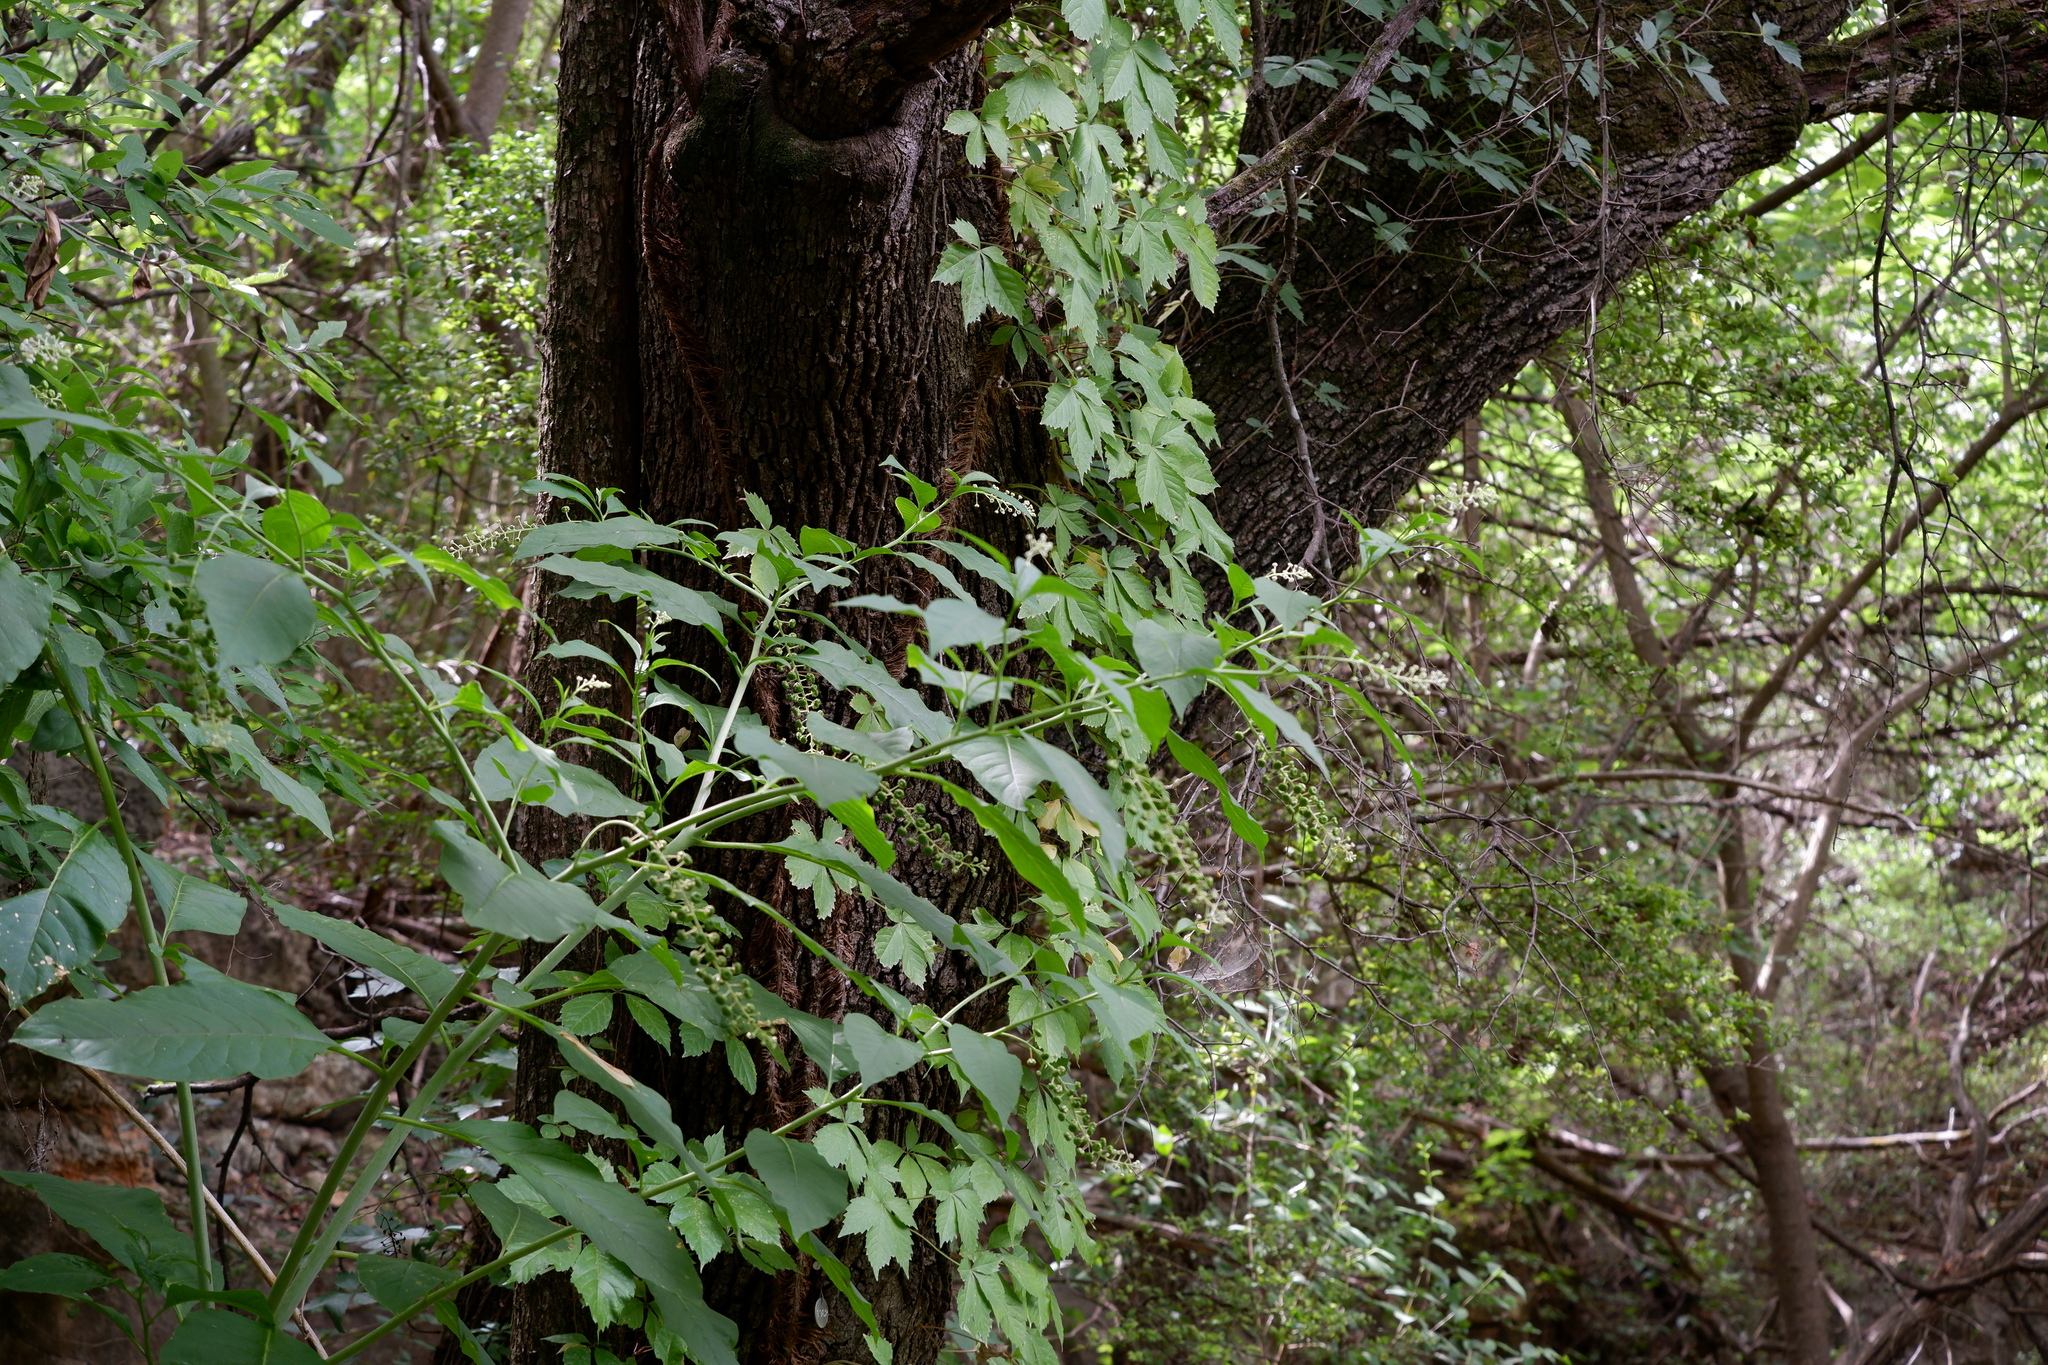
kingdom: Plantae
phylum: Tracheophyta
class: Magnoliopsida
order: Caryophyllales
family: Phytolaccaceae
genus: Phytolacca
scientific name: Phytolacca americana
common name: American pokeweed
